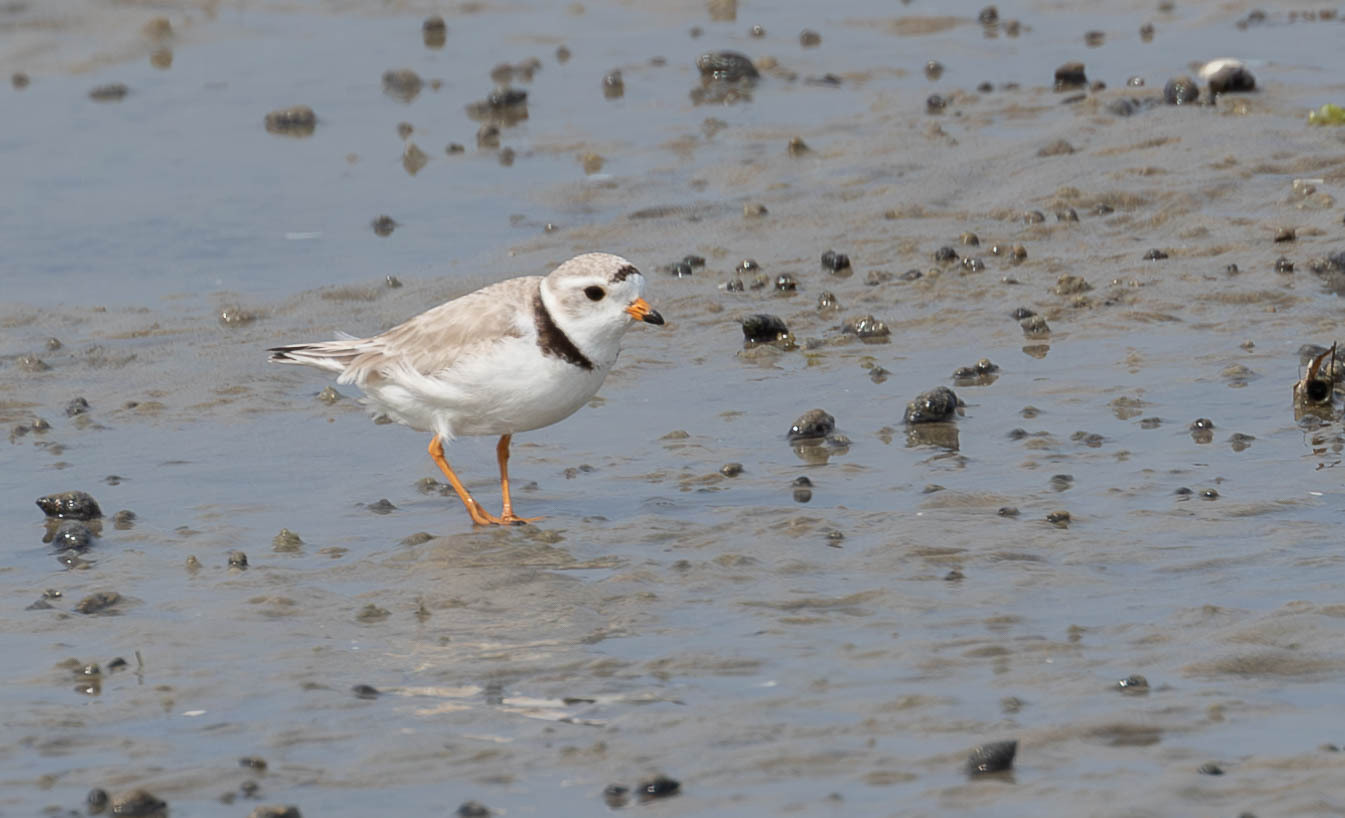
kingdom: Animalia
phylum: Chordata
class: Aves
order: Charadriiformes
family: Charadriidae
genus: Charadrius
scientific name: Charadrius melodus
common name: Piping plover
